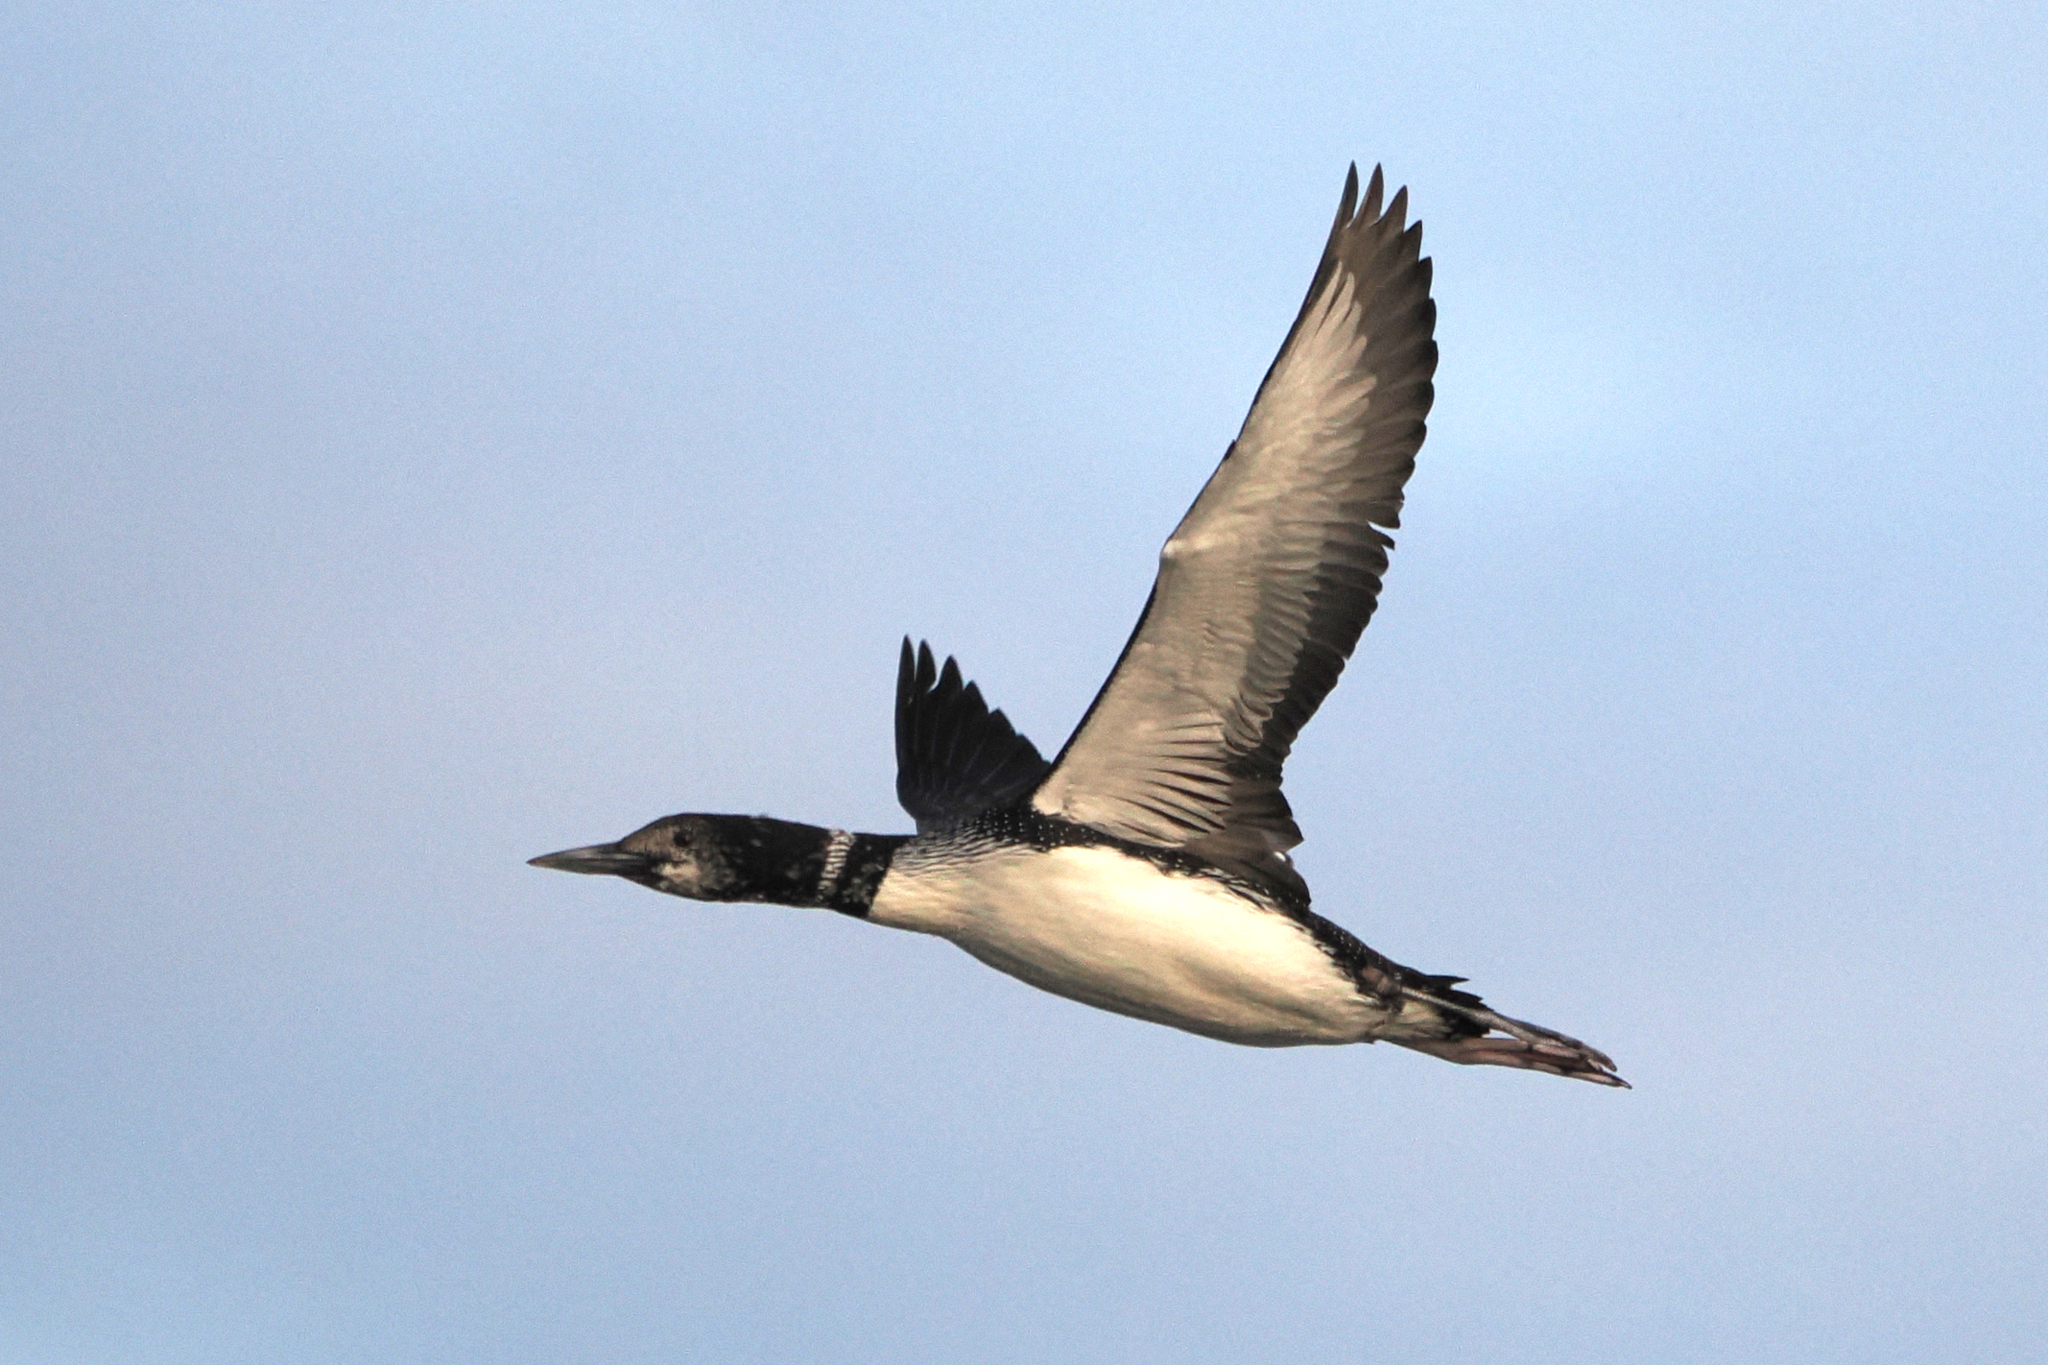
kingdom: Animalia
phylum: Chordata
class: Aves
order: Gaviiformes
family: Gaviidae
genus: Gavia
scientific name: Gavia immer
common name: Common loon
